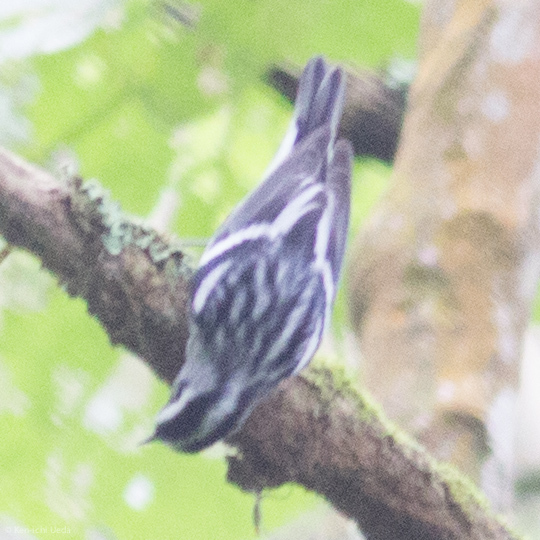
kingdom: Animalia
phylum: Chordata
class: Aves
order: Passeriformes
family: Parulidae
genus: Mniotilta
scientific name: Mniotilta varia
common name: Black-and-white warbler
